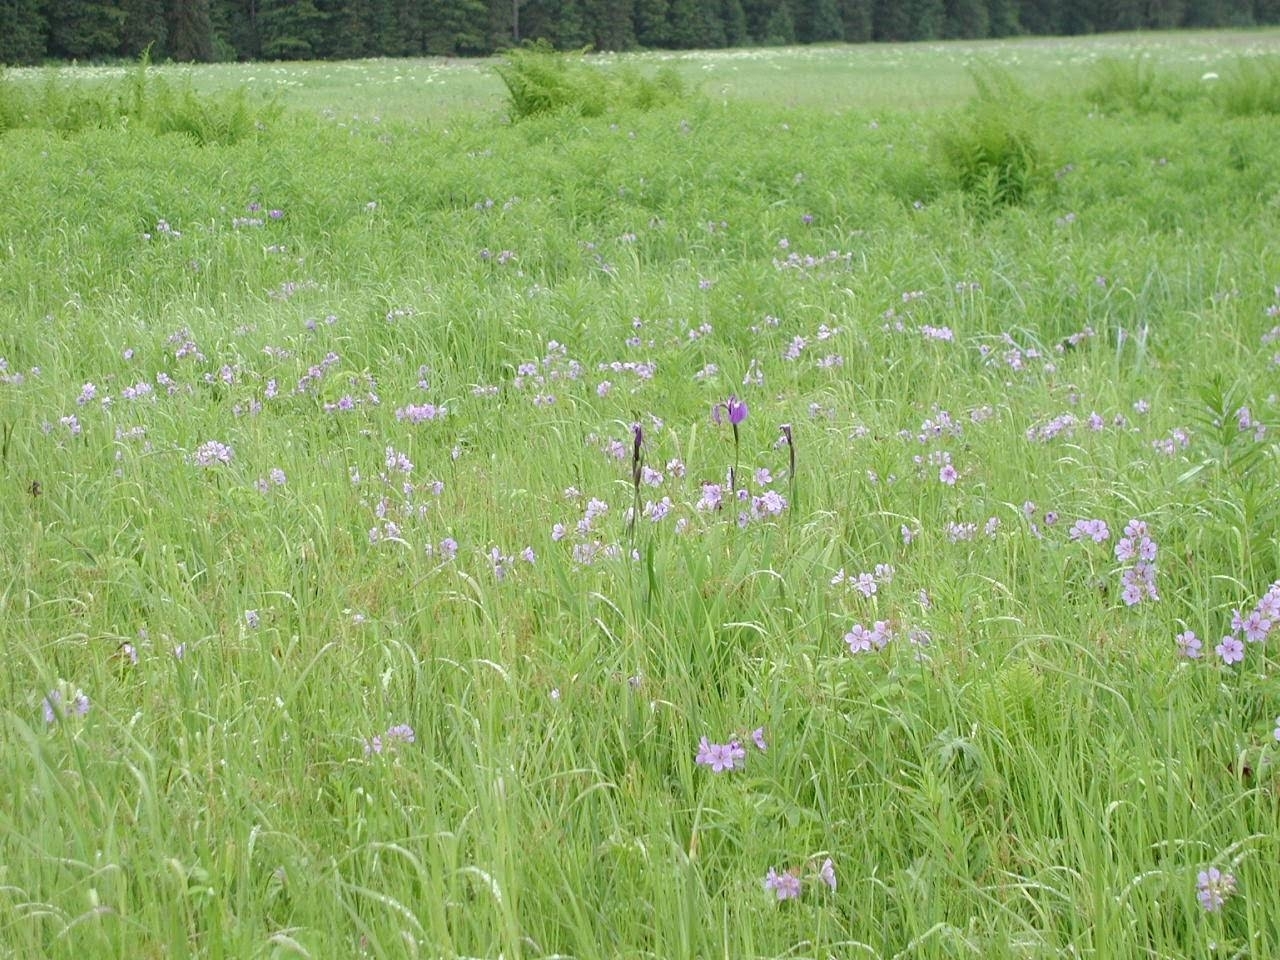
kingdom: Plantae
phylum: Tracheophyta
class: Magnoliopsida
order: Geraniales
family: Geraniaceae
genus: Geranium
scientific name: Geranium erianthum
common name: Northern crane's-bill
